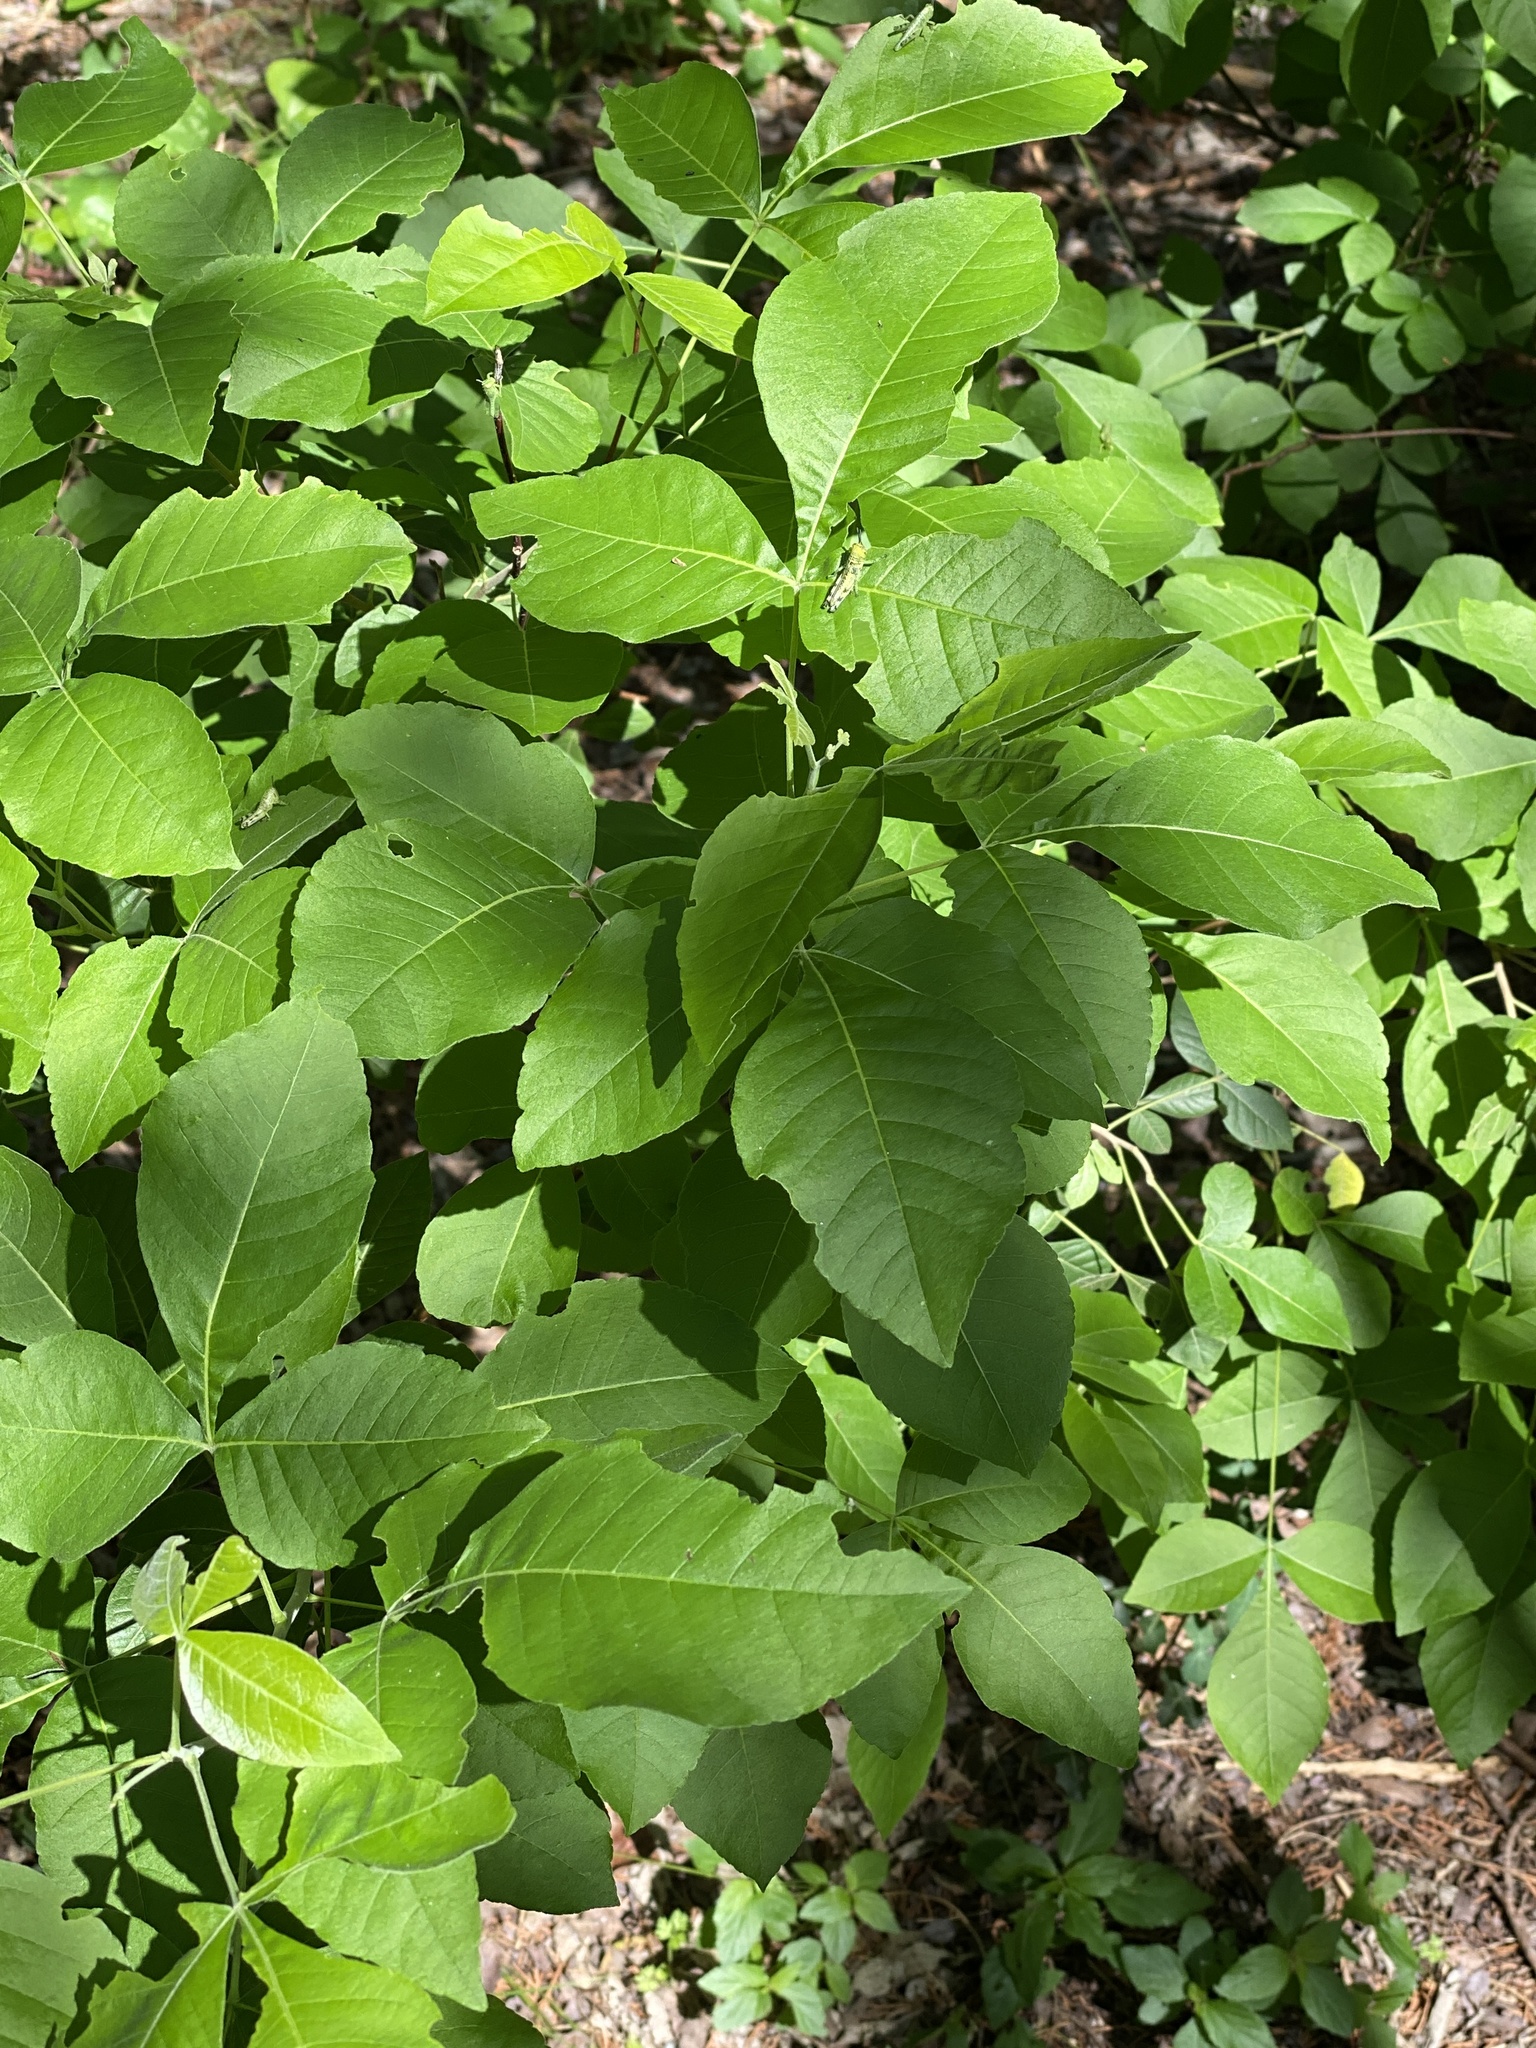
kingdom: Plantae
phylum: Tracheophyta
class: Magnoliopsida
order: Sapindales
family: Rutaceae
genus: Ptelea
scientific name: Ptelea trifoliata
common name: Common hop-tree
